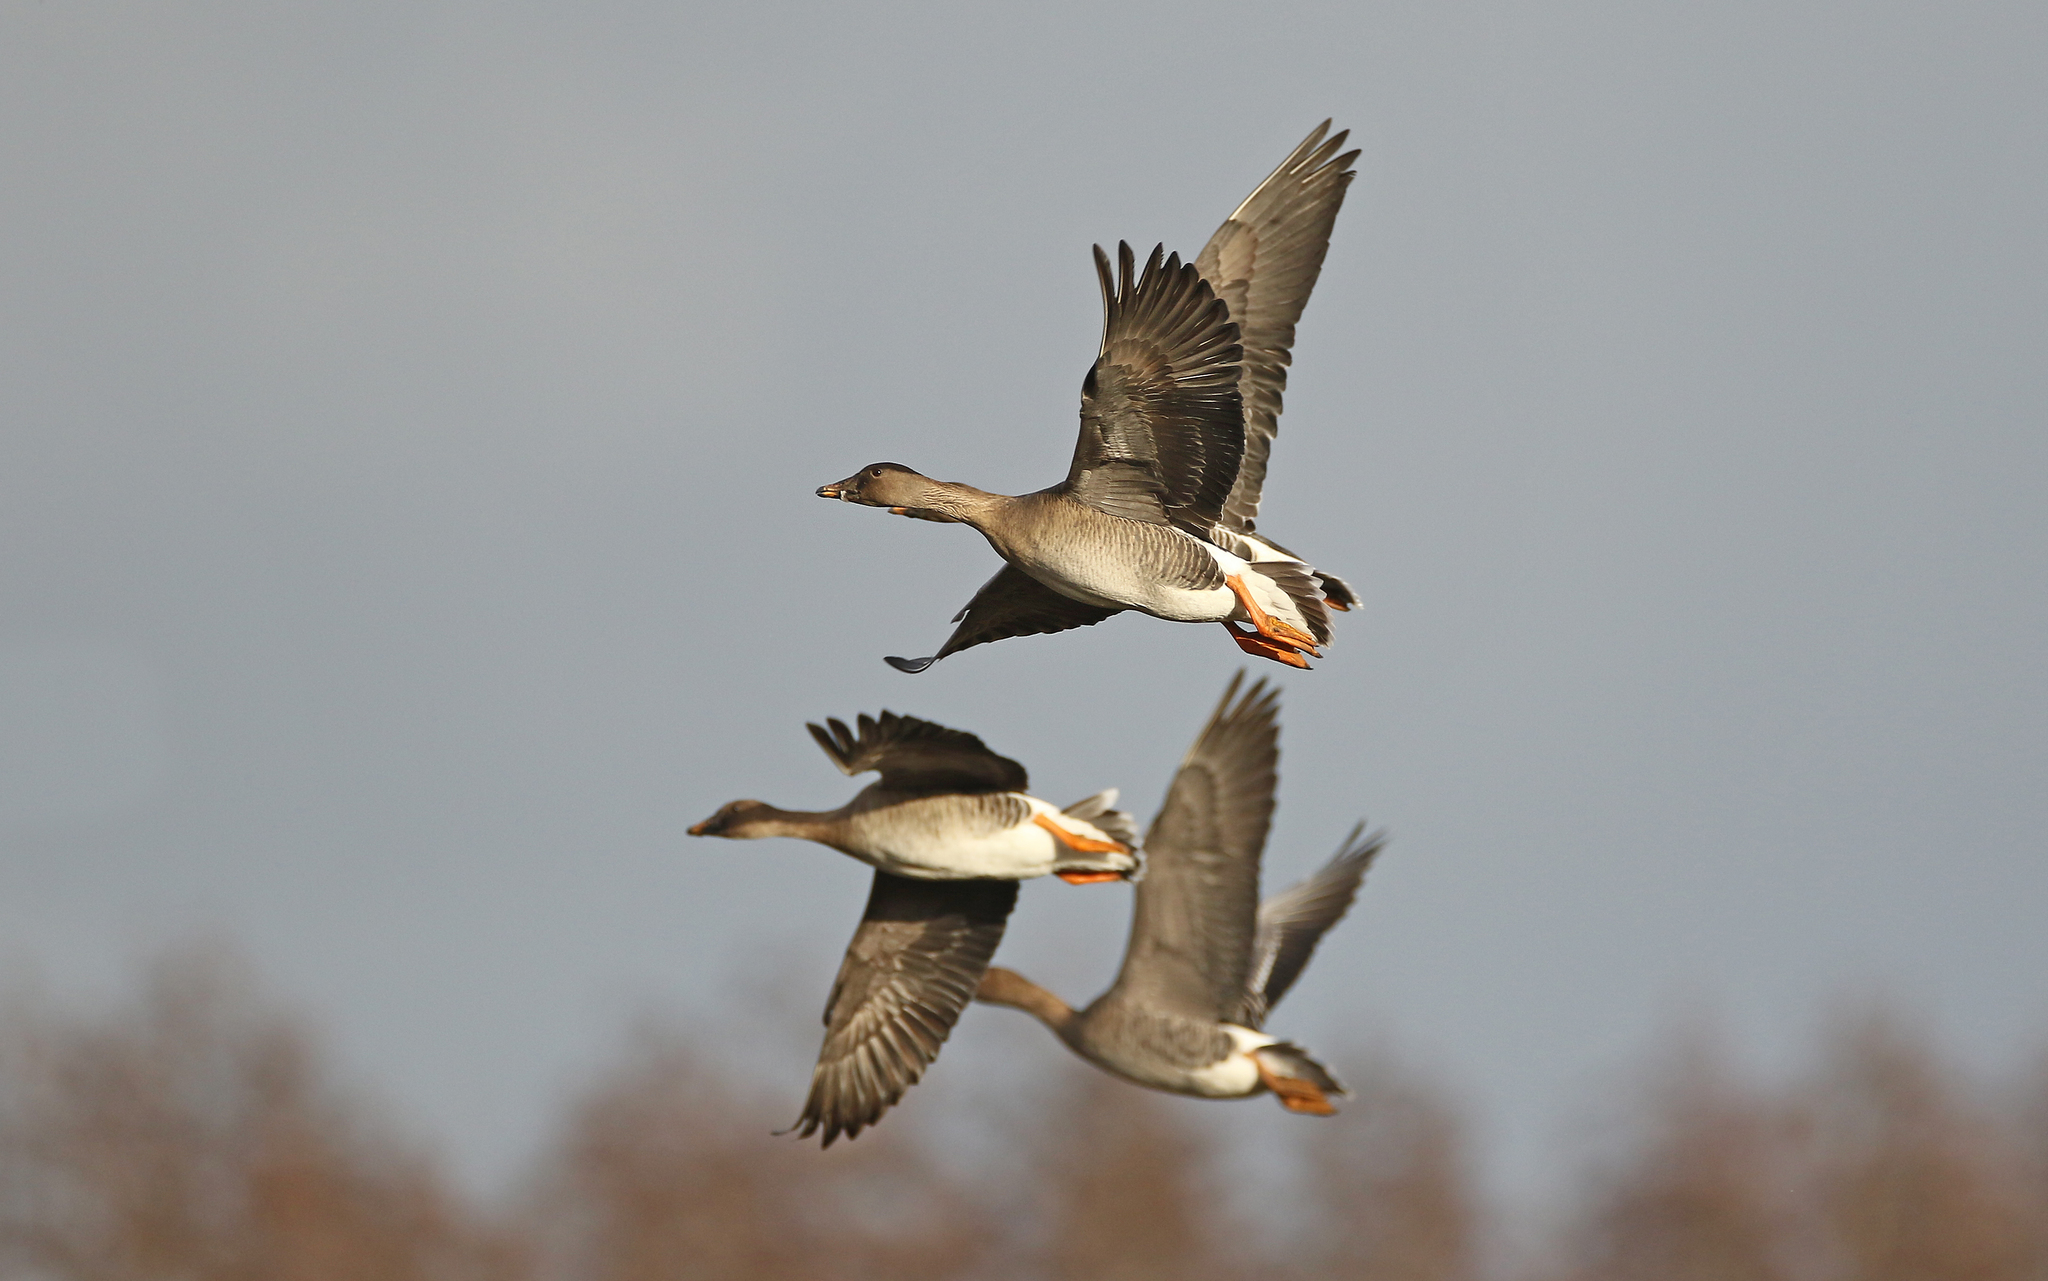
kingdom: Animalia
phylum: Chordata
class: Aves
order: Anseriformes
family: Anatidae
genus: Anser
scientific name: Anser serrirostris
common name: Tundra bean goose
